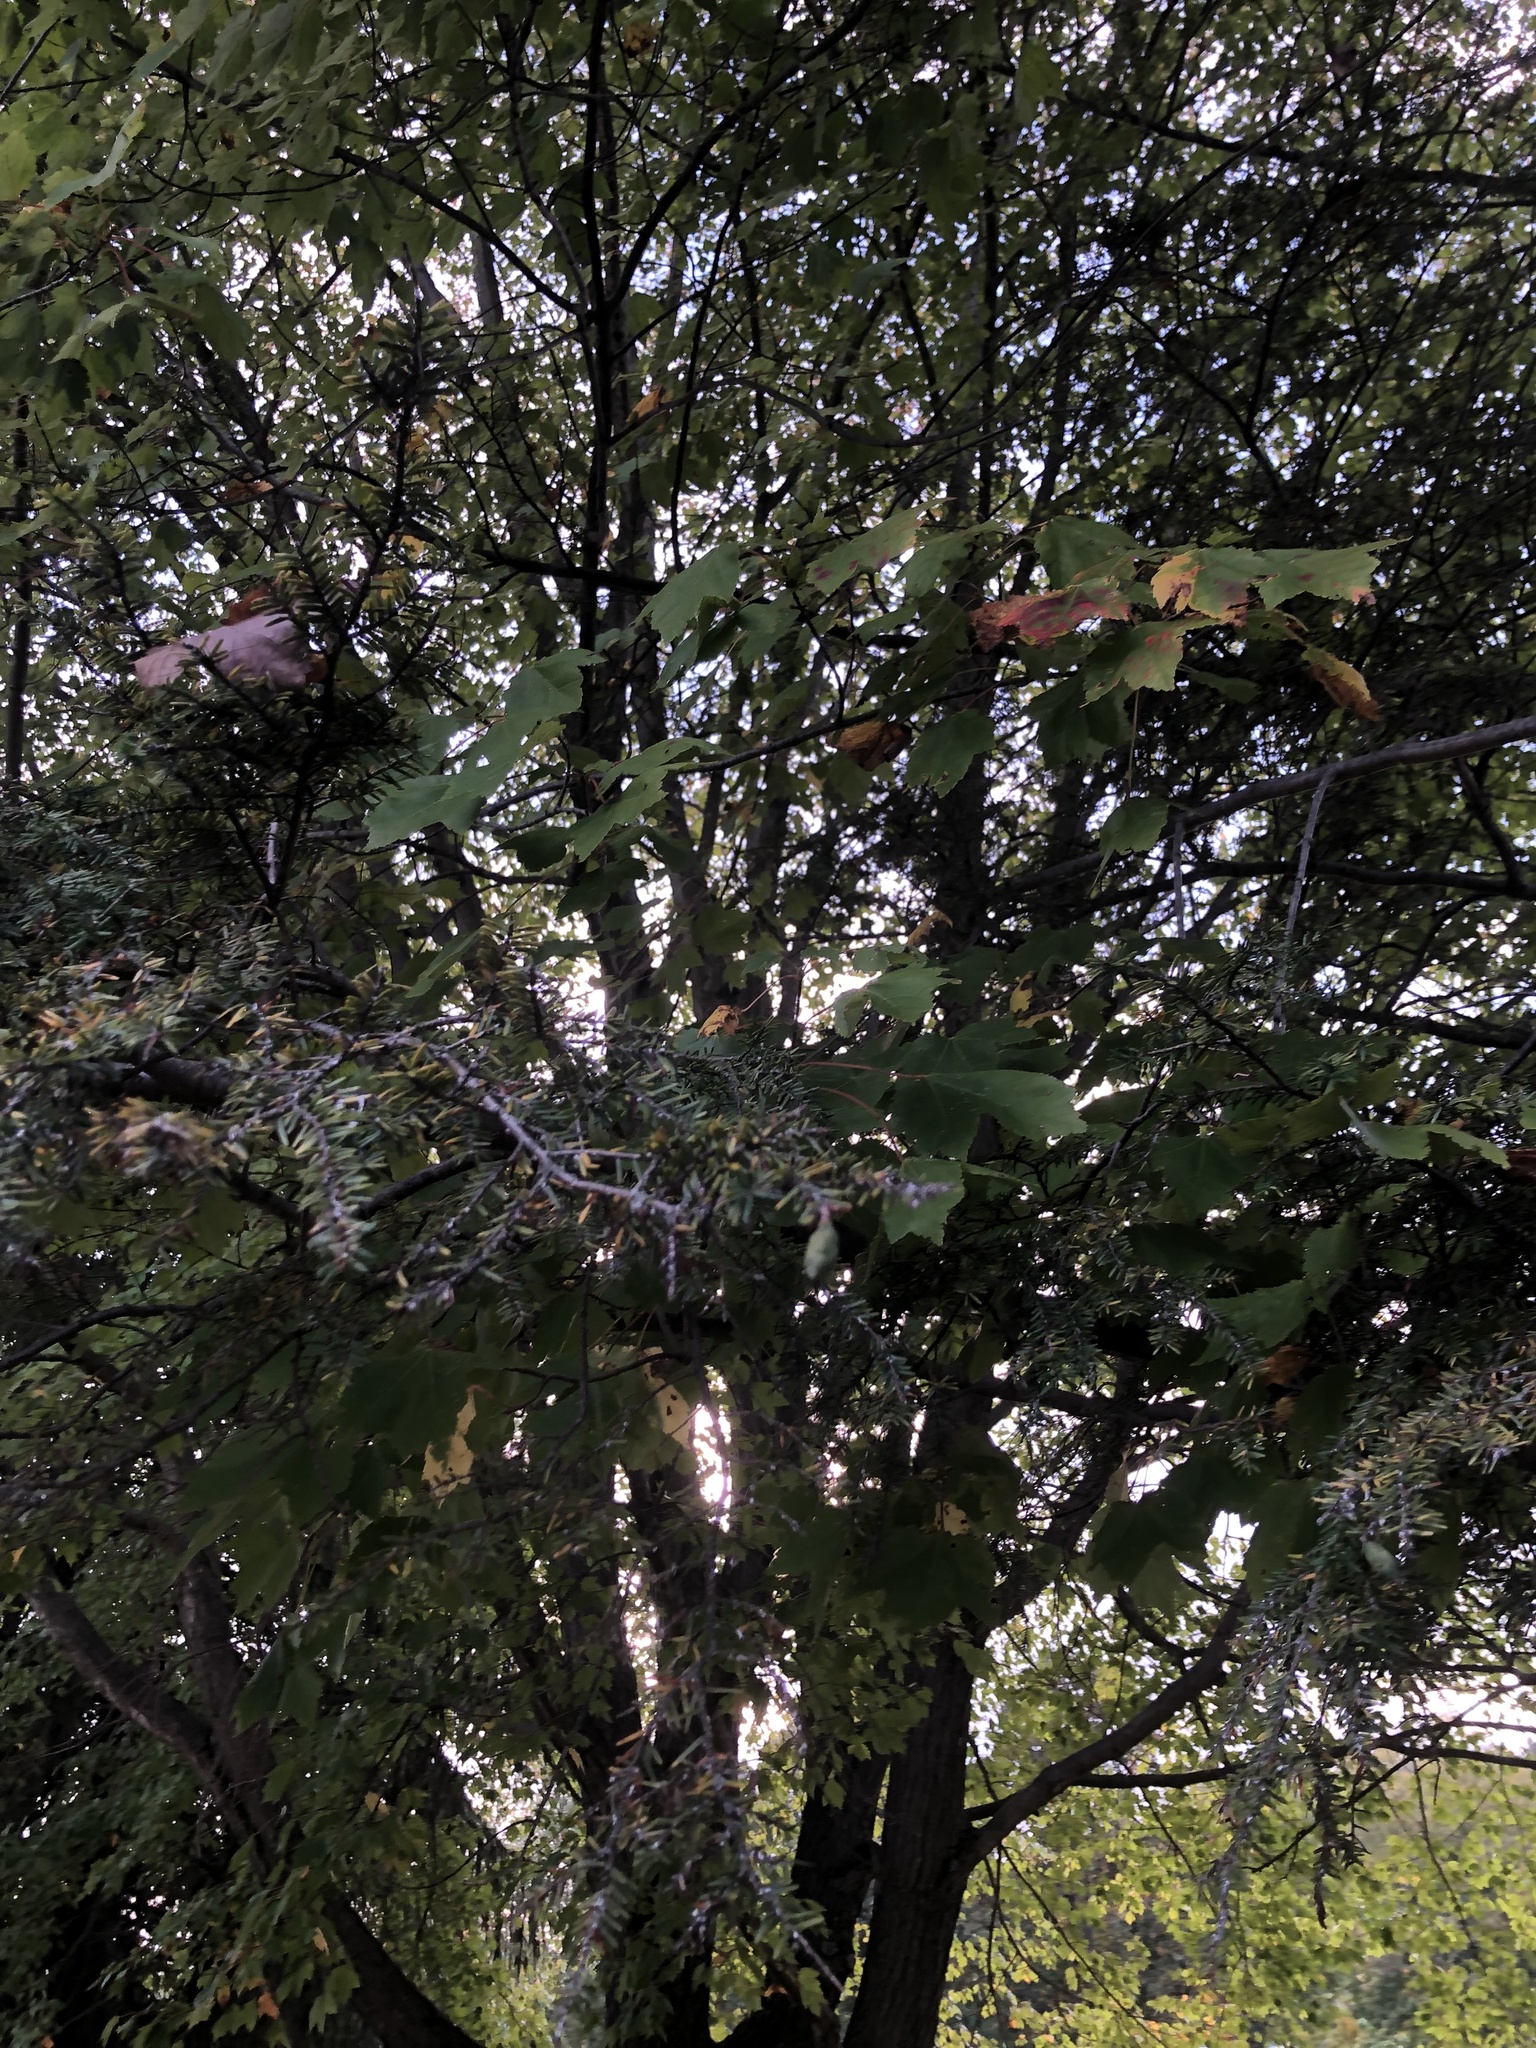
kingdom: Plantae
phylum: Tracheophyta
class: Magnoliopsida
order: Sapindales
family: Sapindaceae
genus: Acer
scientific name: Acer rubrum
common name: Red maple
